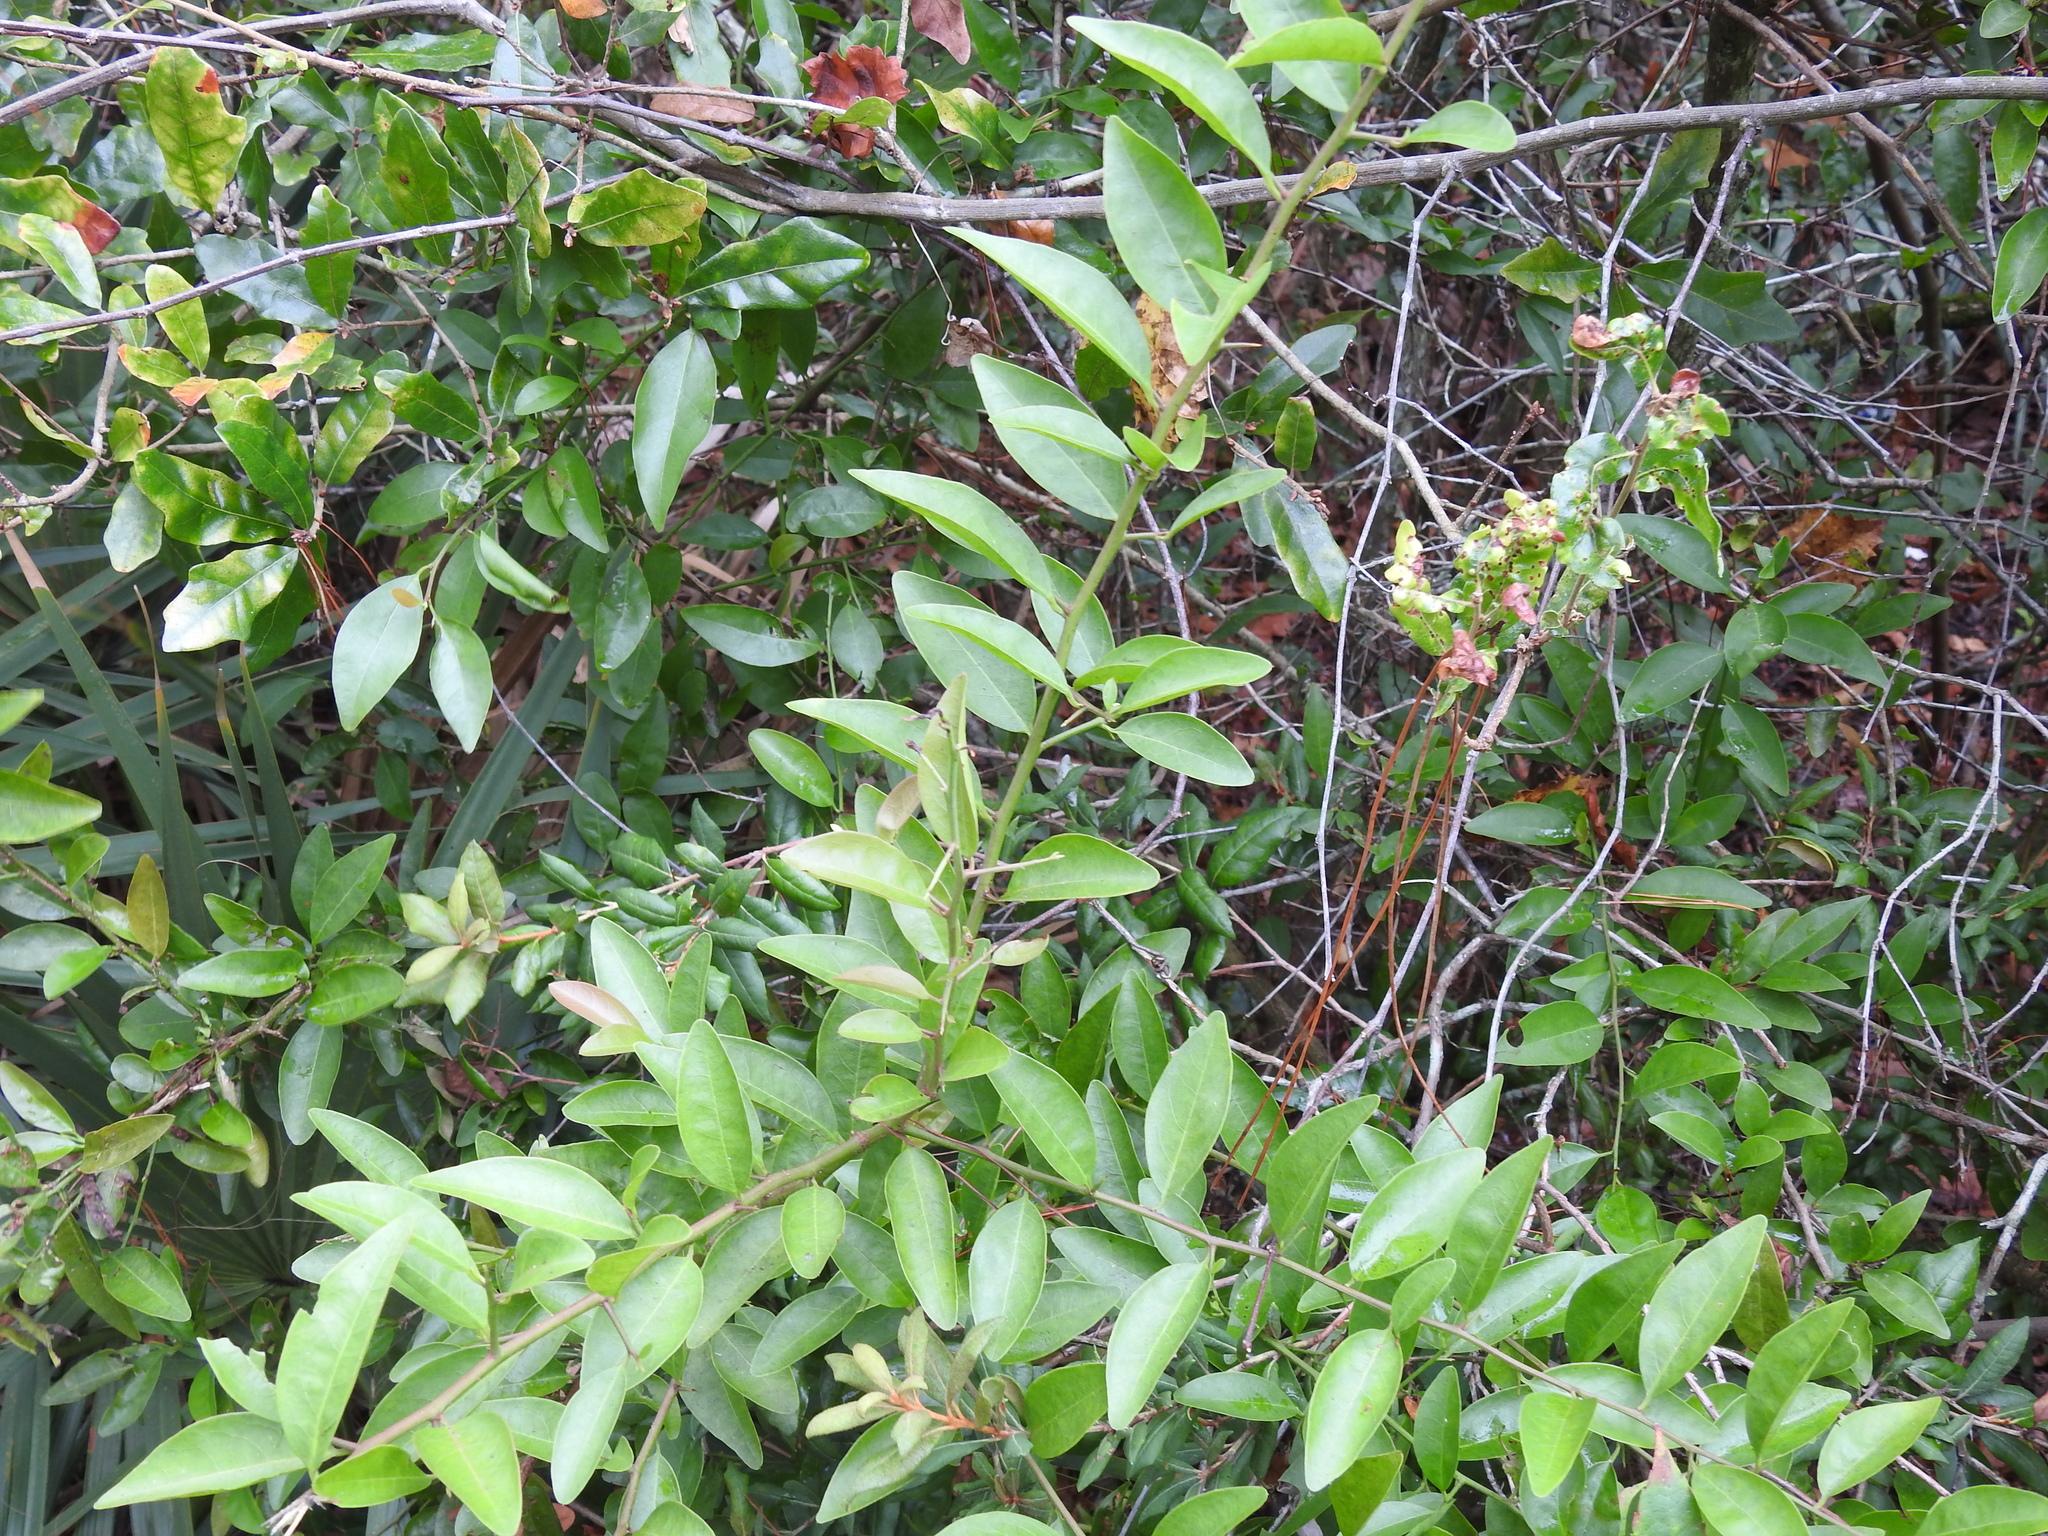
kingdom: Plantae
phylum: Tracheophyta
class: Magnoliopsida
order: Santalales
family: Ximeniaceae
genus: Ximenia
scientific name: Ximenia americana
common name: Tallowwood
